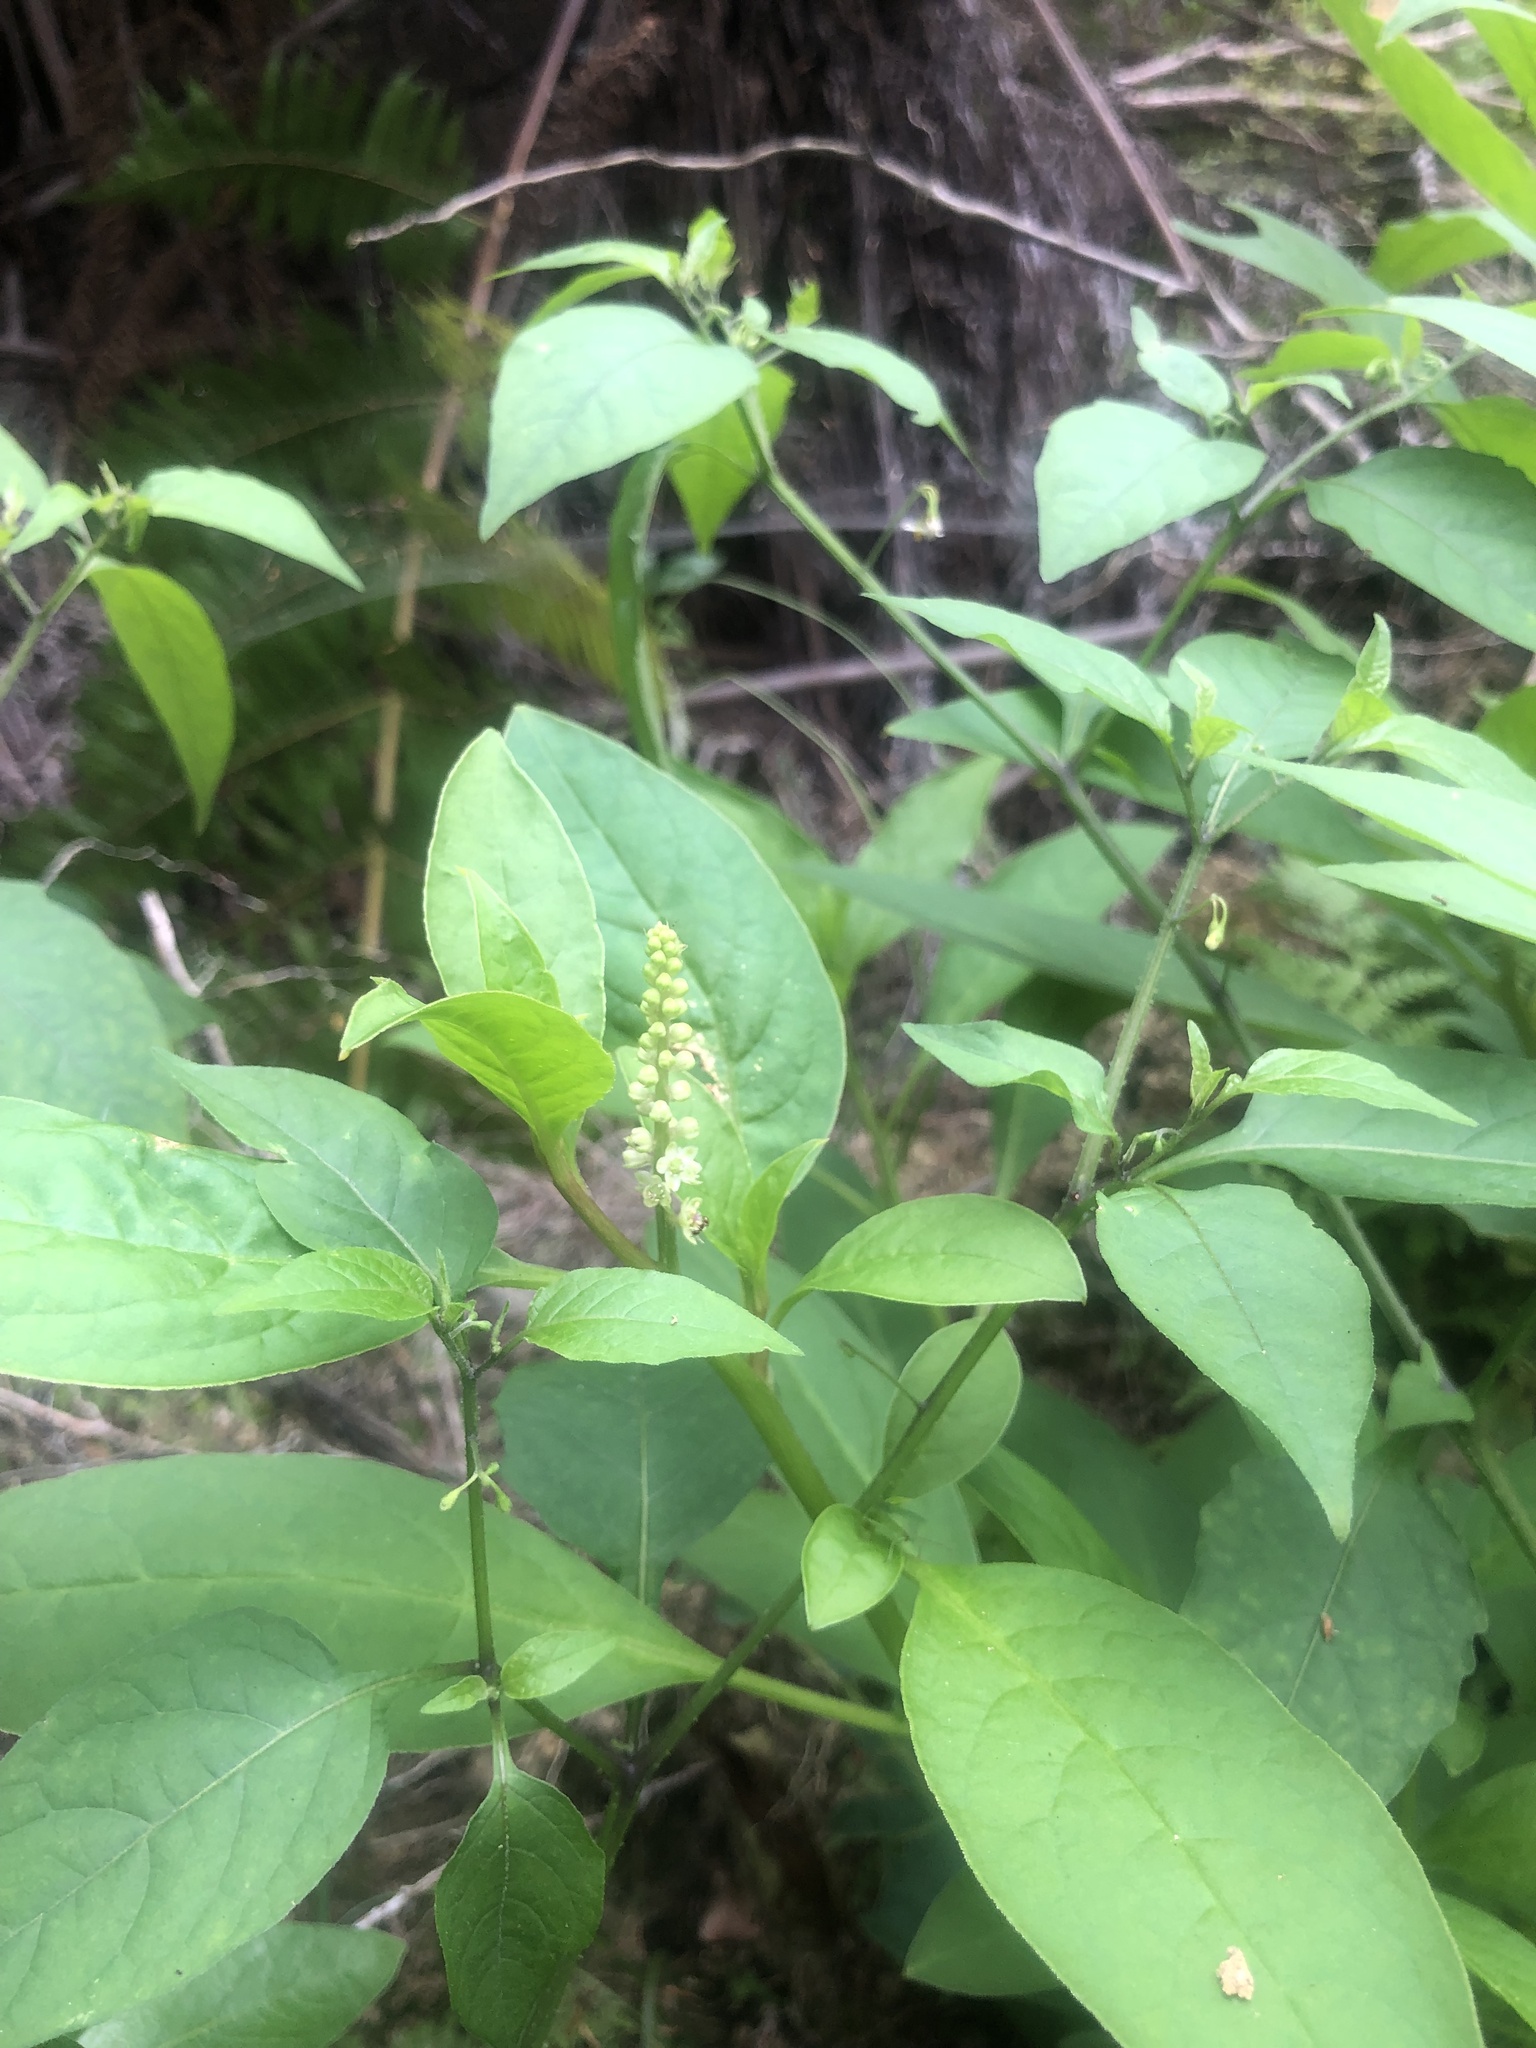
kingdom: Plantae
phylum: Tracheophyta
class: Magnoliopsida
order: Caryophyllales
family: Phytolaccaceae
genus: Phytolacca
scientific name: Phytolacca icosandra
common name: Button pokeweed
